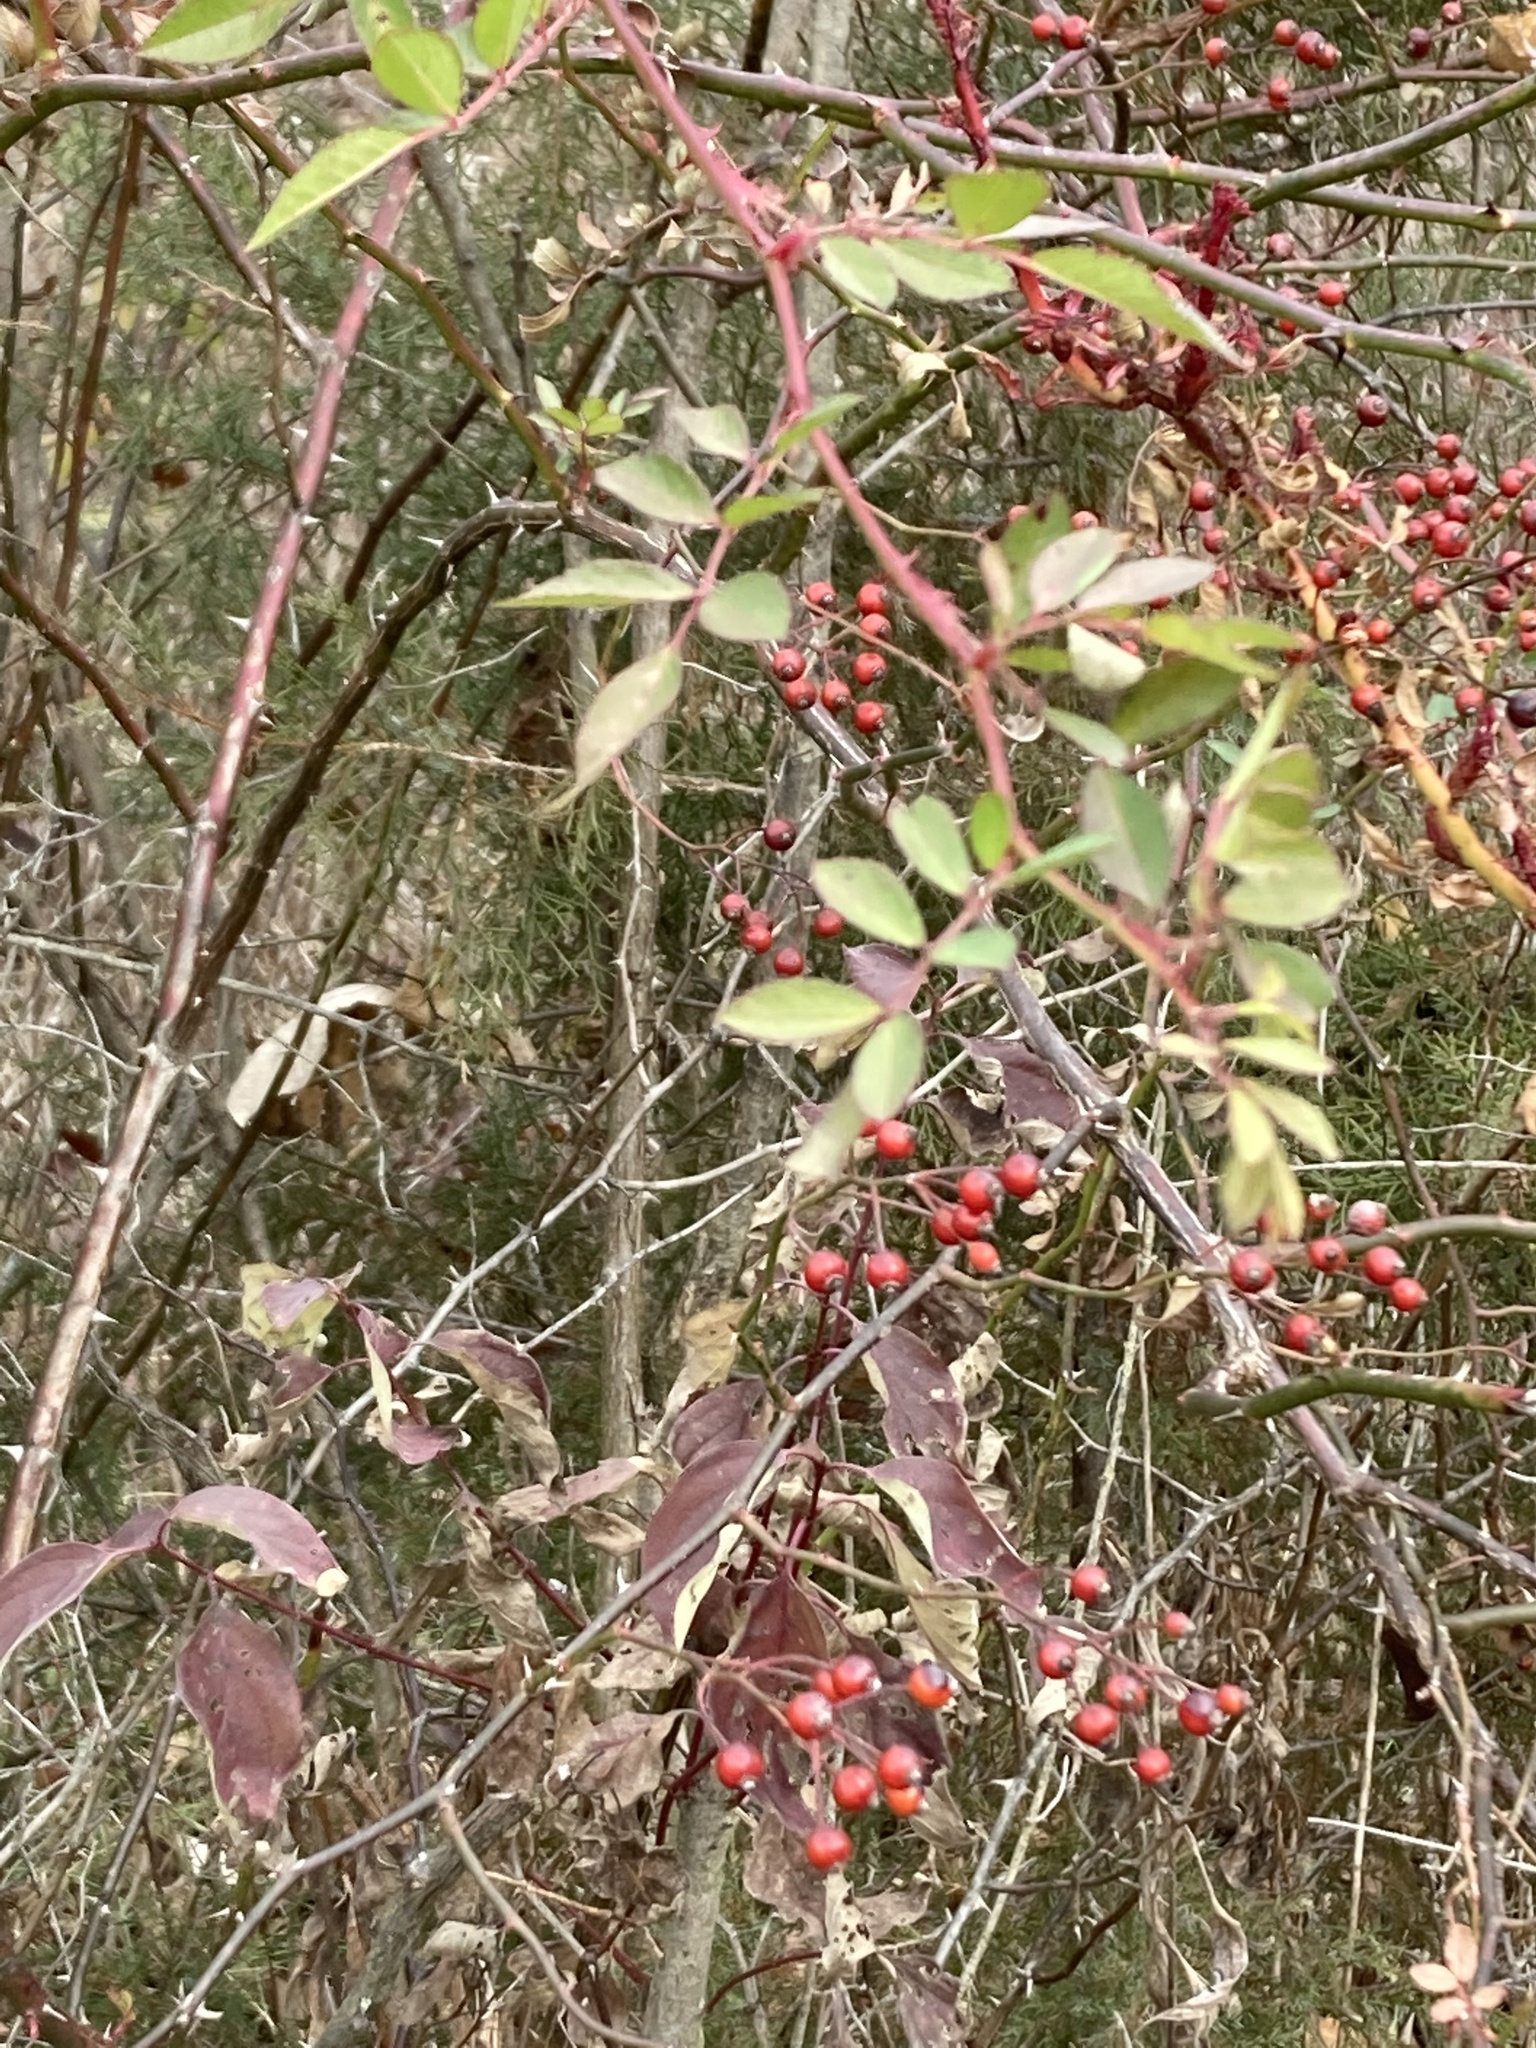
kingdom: Plantae
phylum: Tracheophyta
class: Magnoliopsida
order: Rosales
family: Rosaceae
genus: Rosa
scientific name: Rosa multiflora
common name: Multiflora rose
